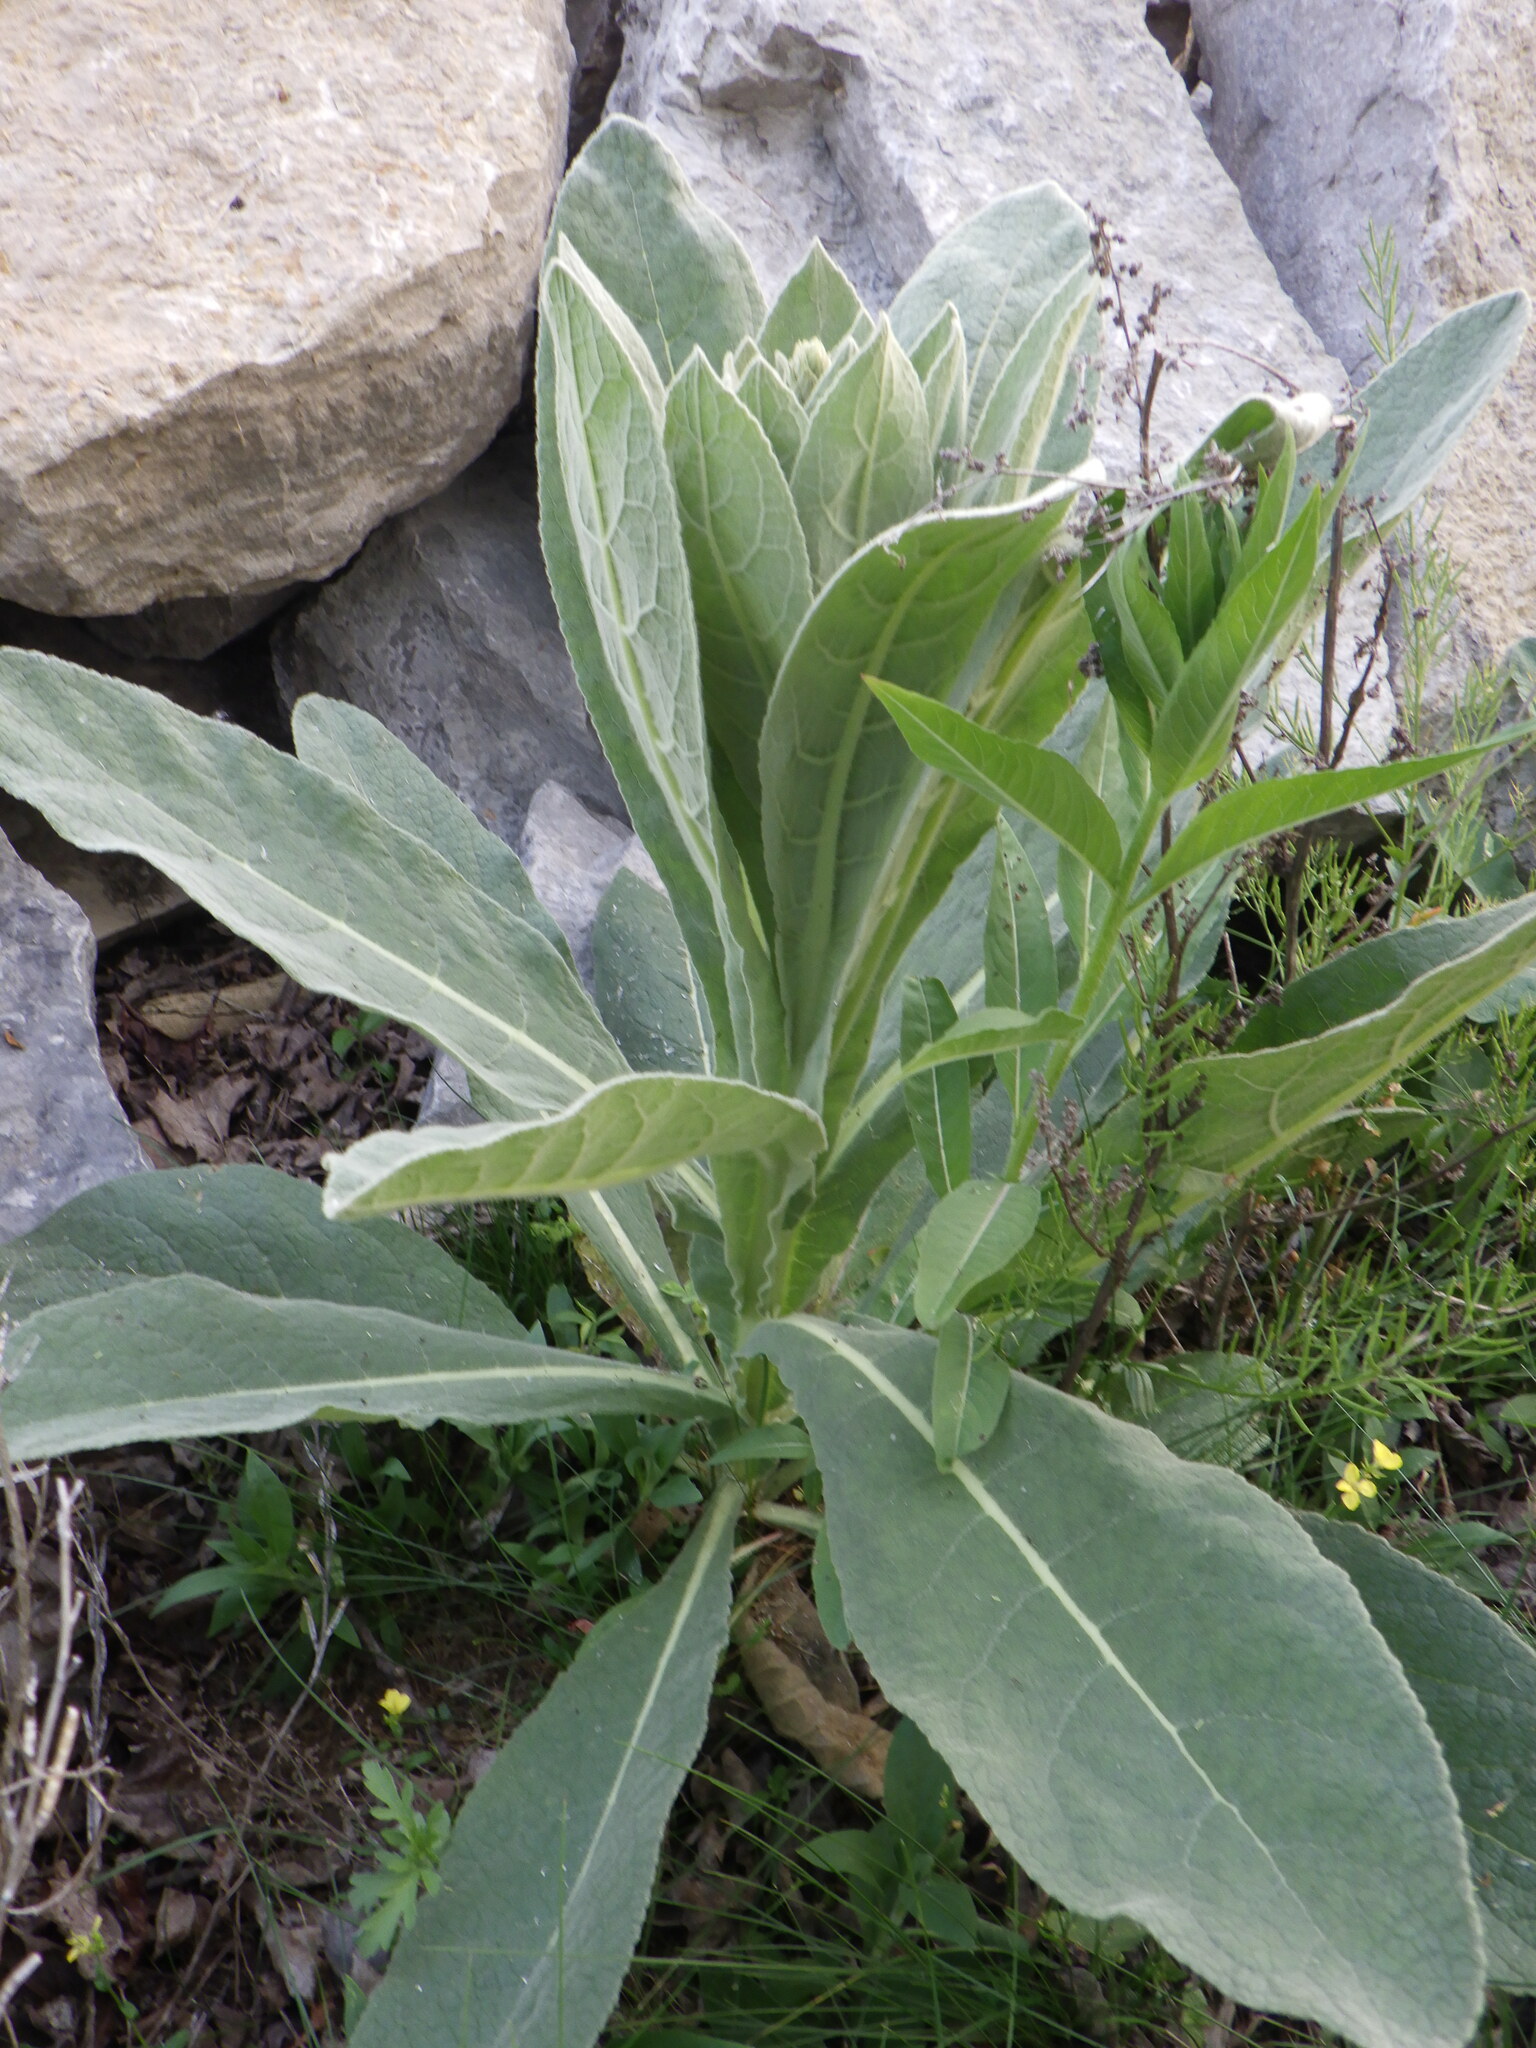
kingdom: Plantae
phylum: Tracheophyta
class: Magnoliopsida
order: Lamiales
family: Scrophulariaceae
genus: Verbascum
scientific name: Verbascum thapsus
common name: Common mullein
